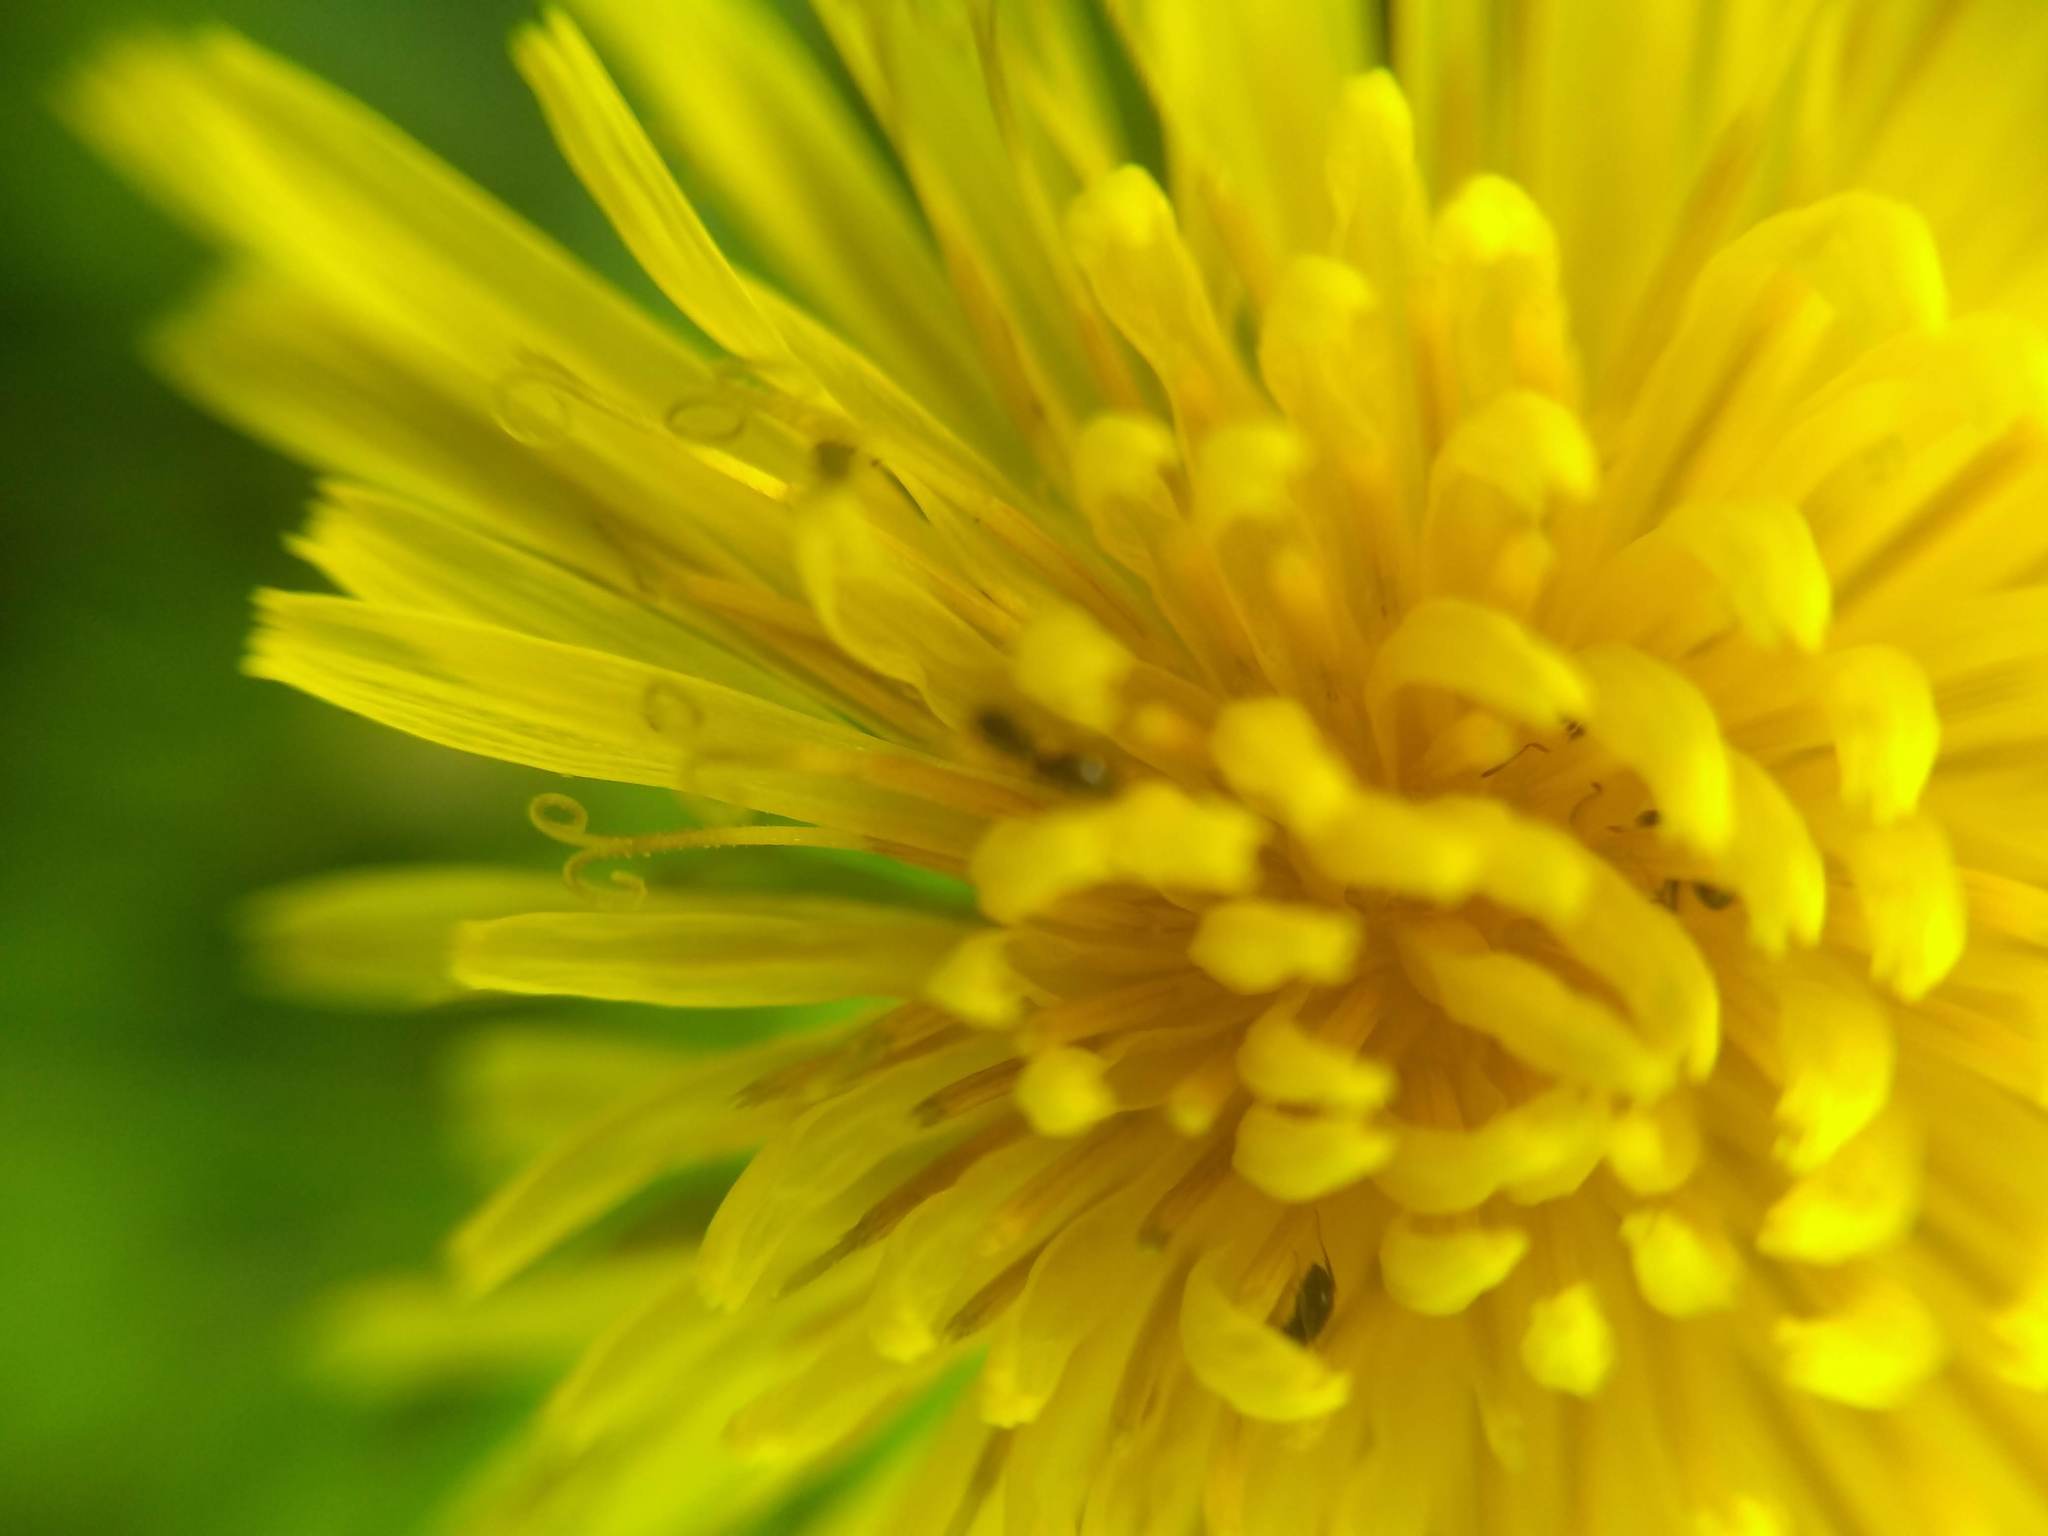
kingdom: Plantae
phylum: Tracheophyta
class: Magnoliopsida
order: Asterales
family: Asteraceae
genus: Taraxacum
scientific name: Taraxacum officinale
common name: Common dandelion
